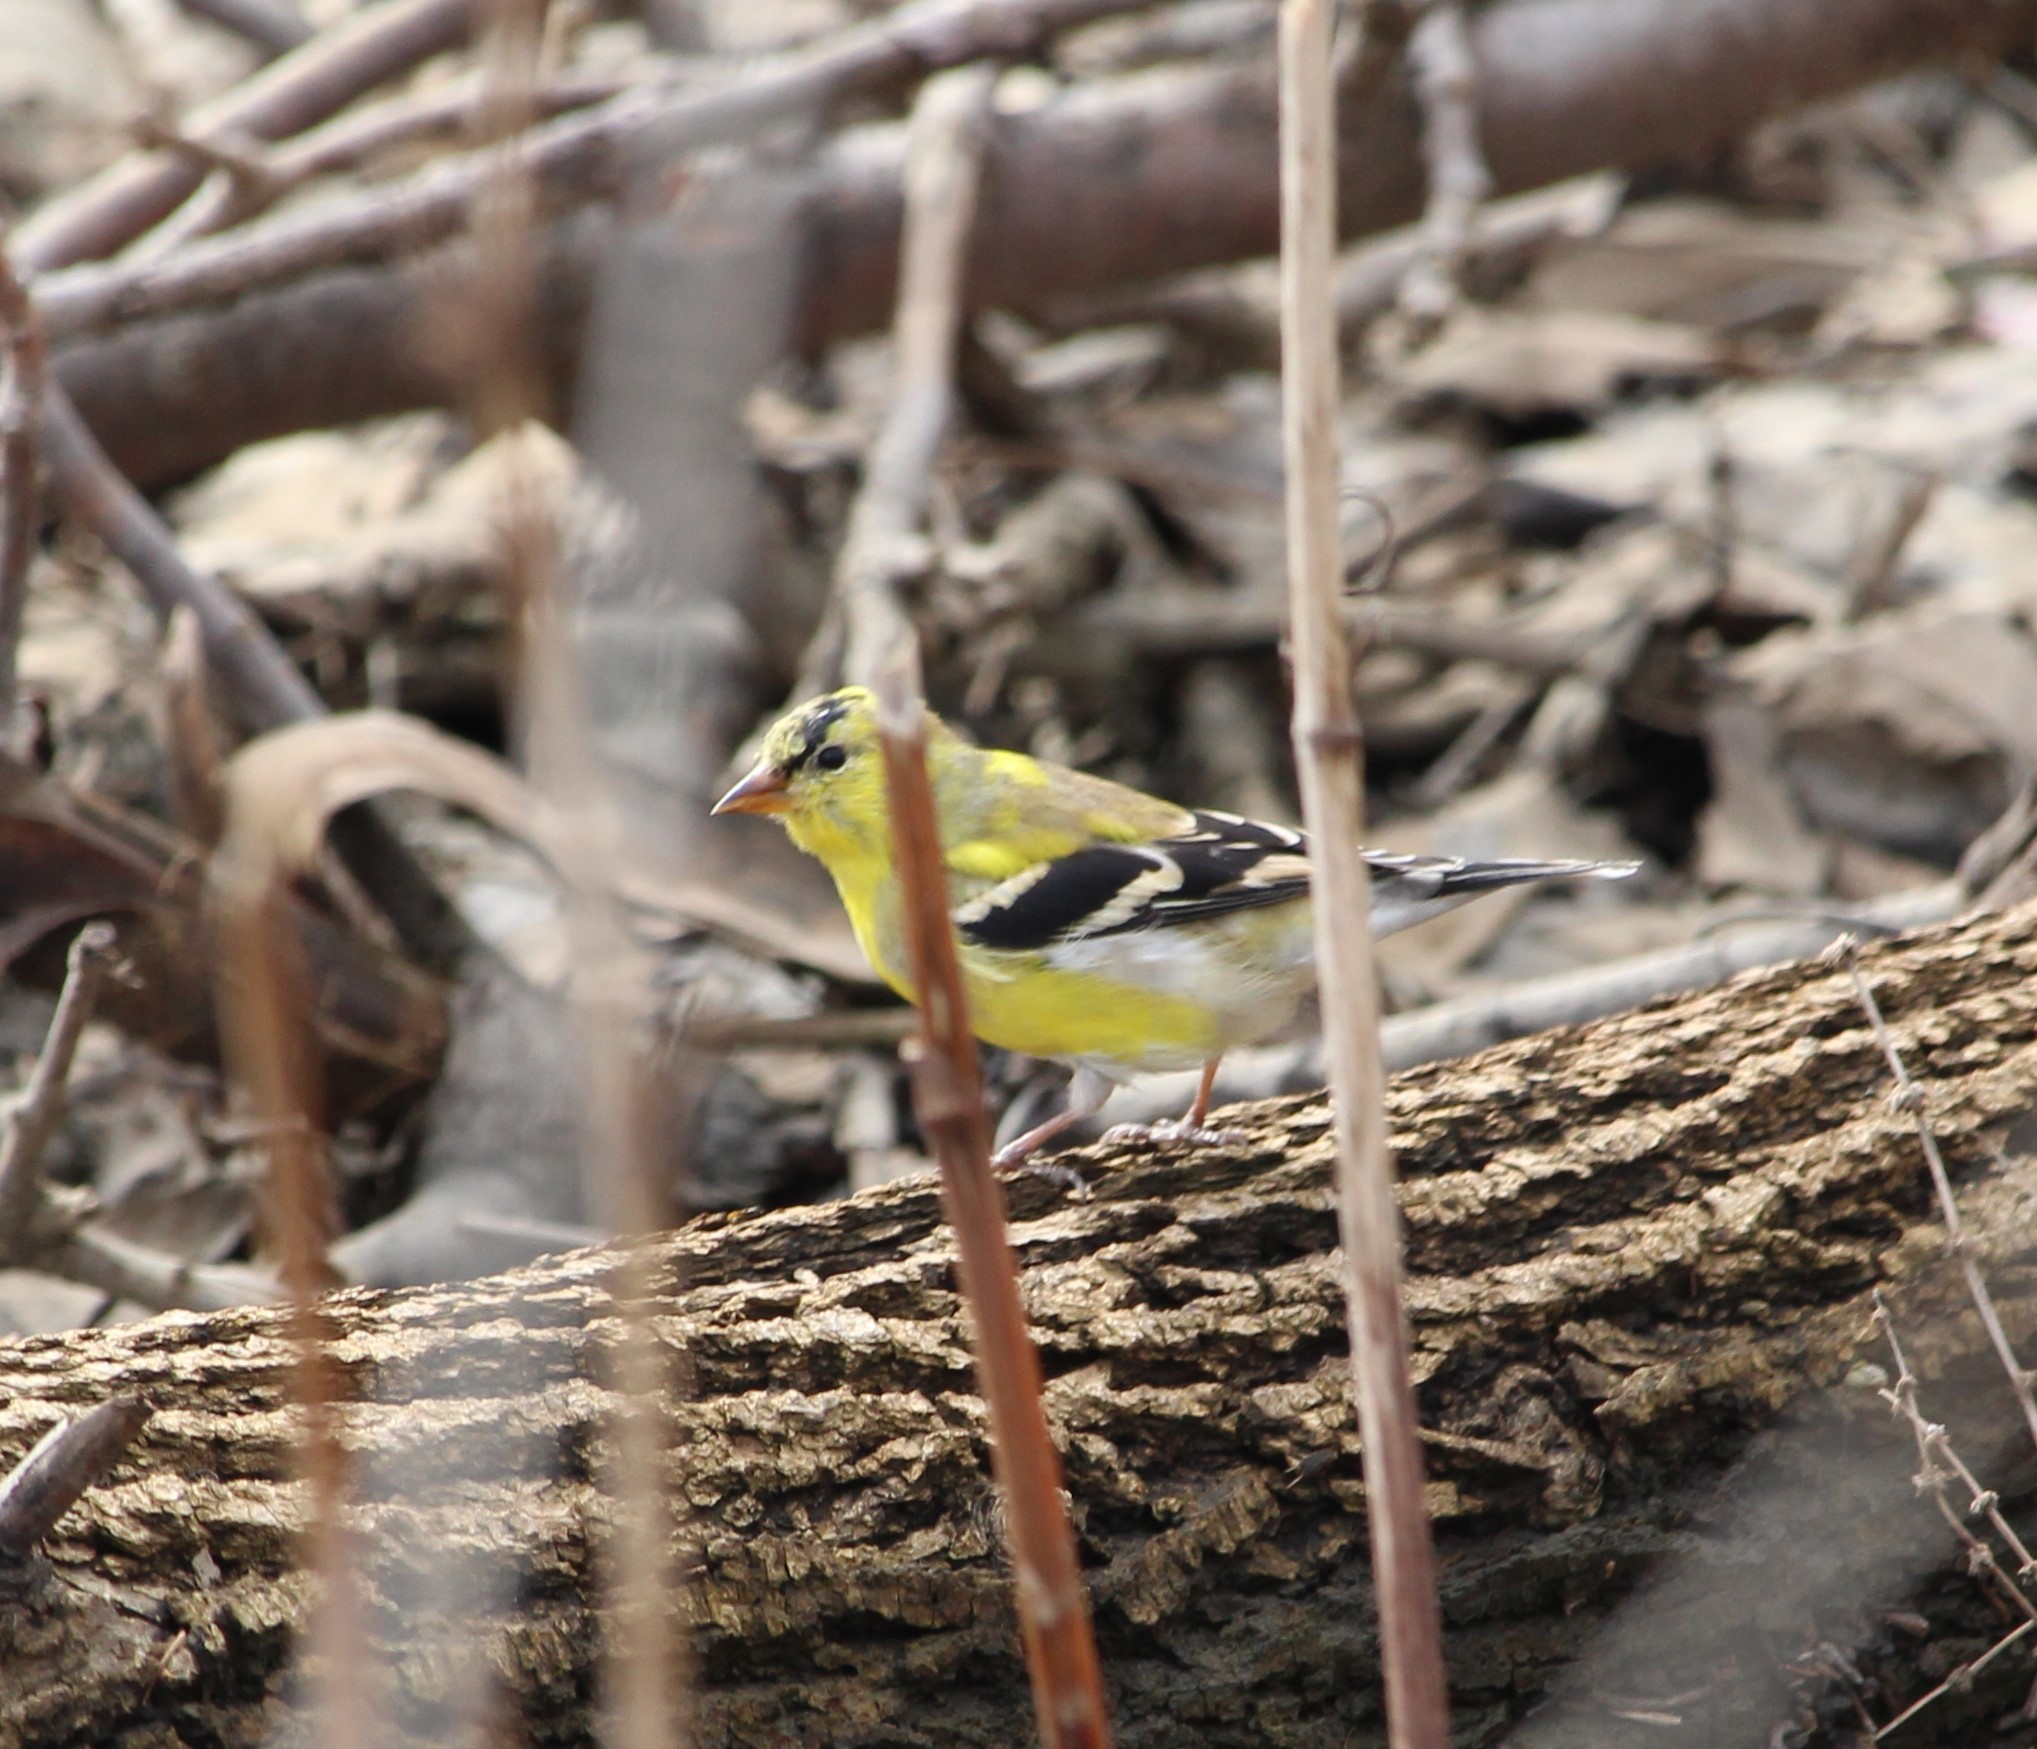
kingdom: Animalia
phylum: Chordata
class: Aves
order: Passeriformes
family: Fringillidae
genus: Spinus
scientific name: Spinus tristis
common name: American goldfinch
